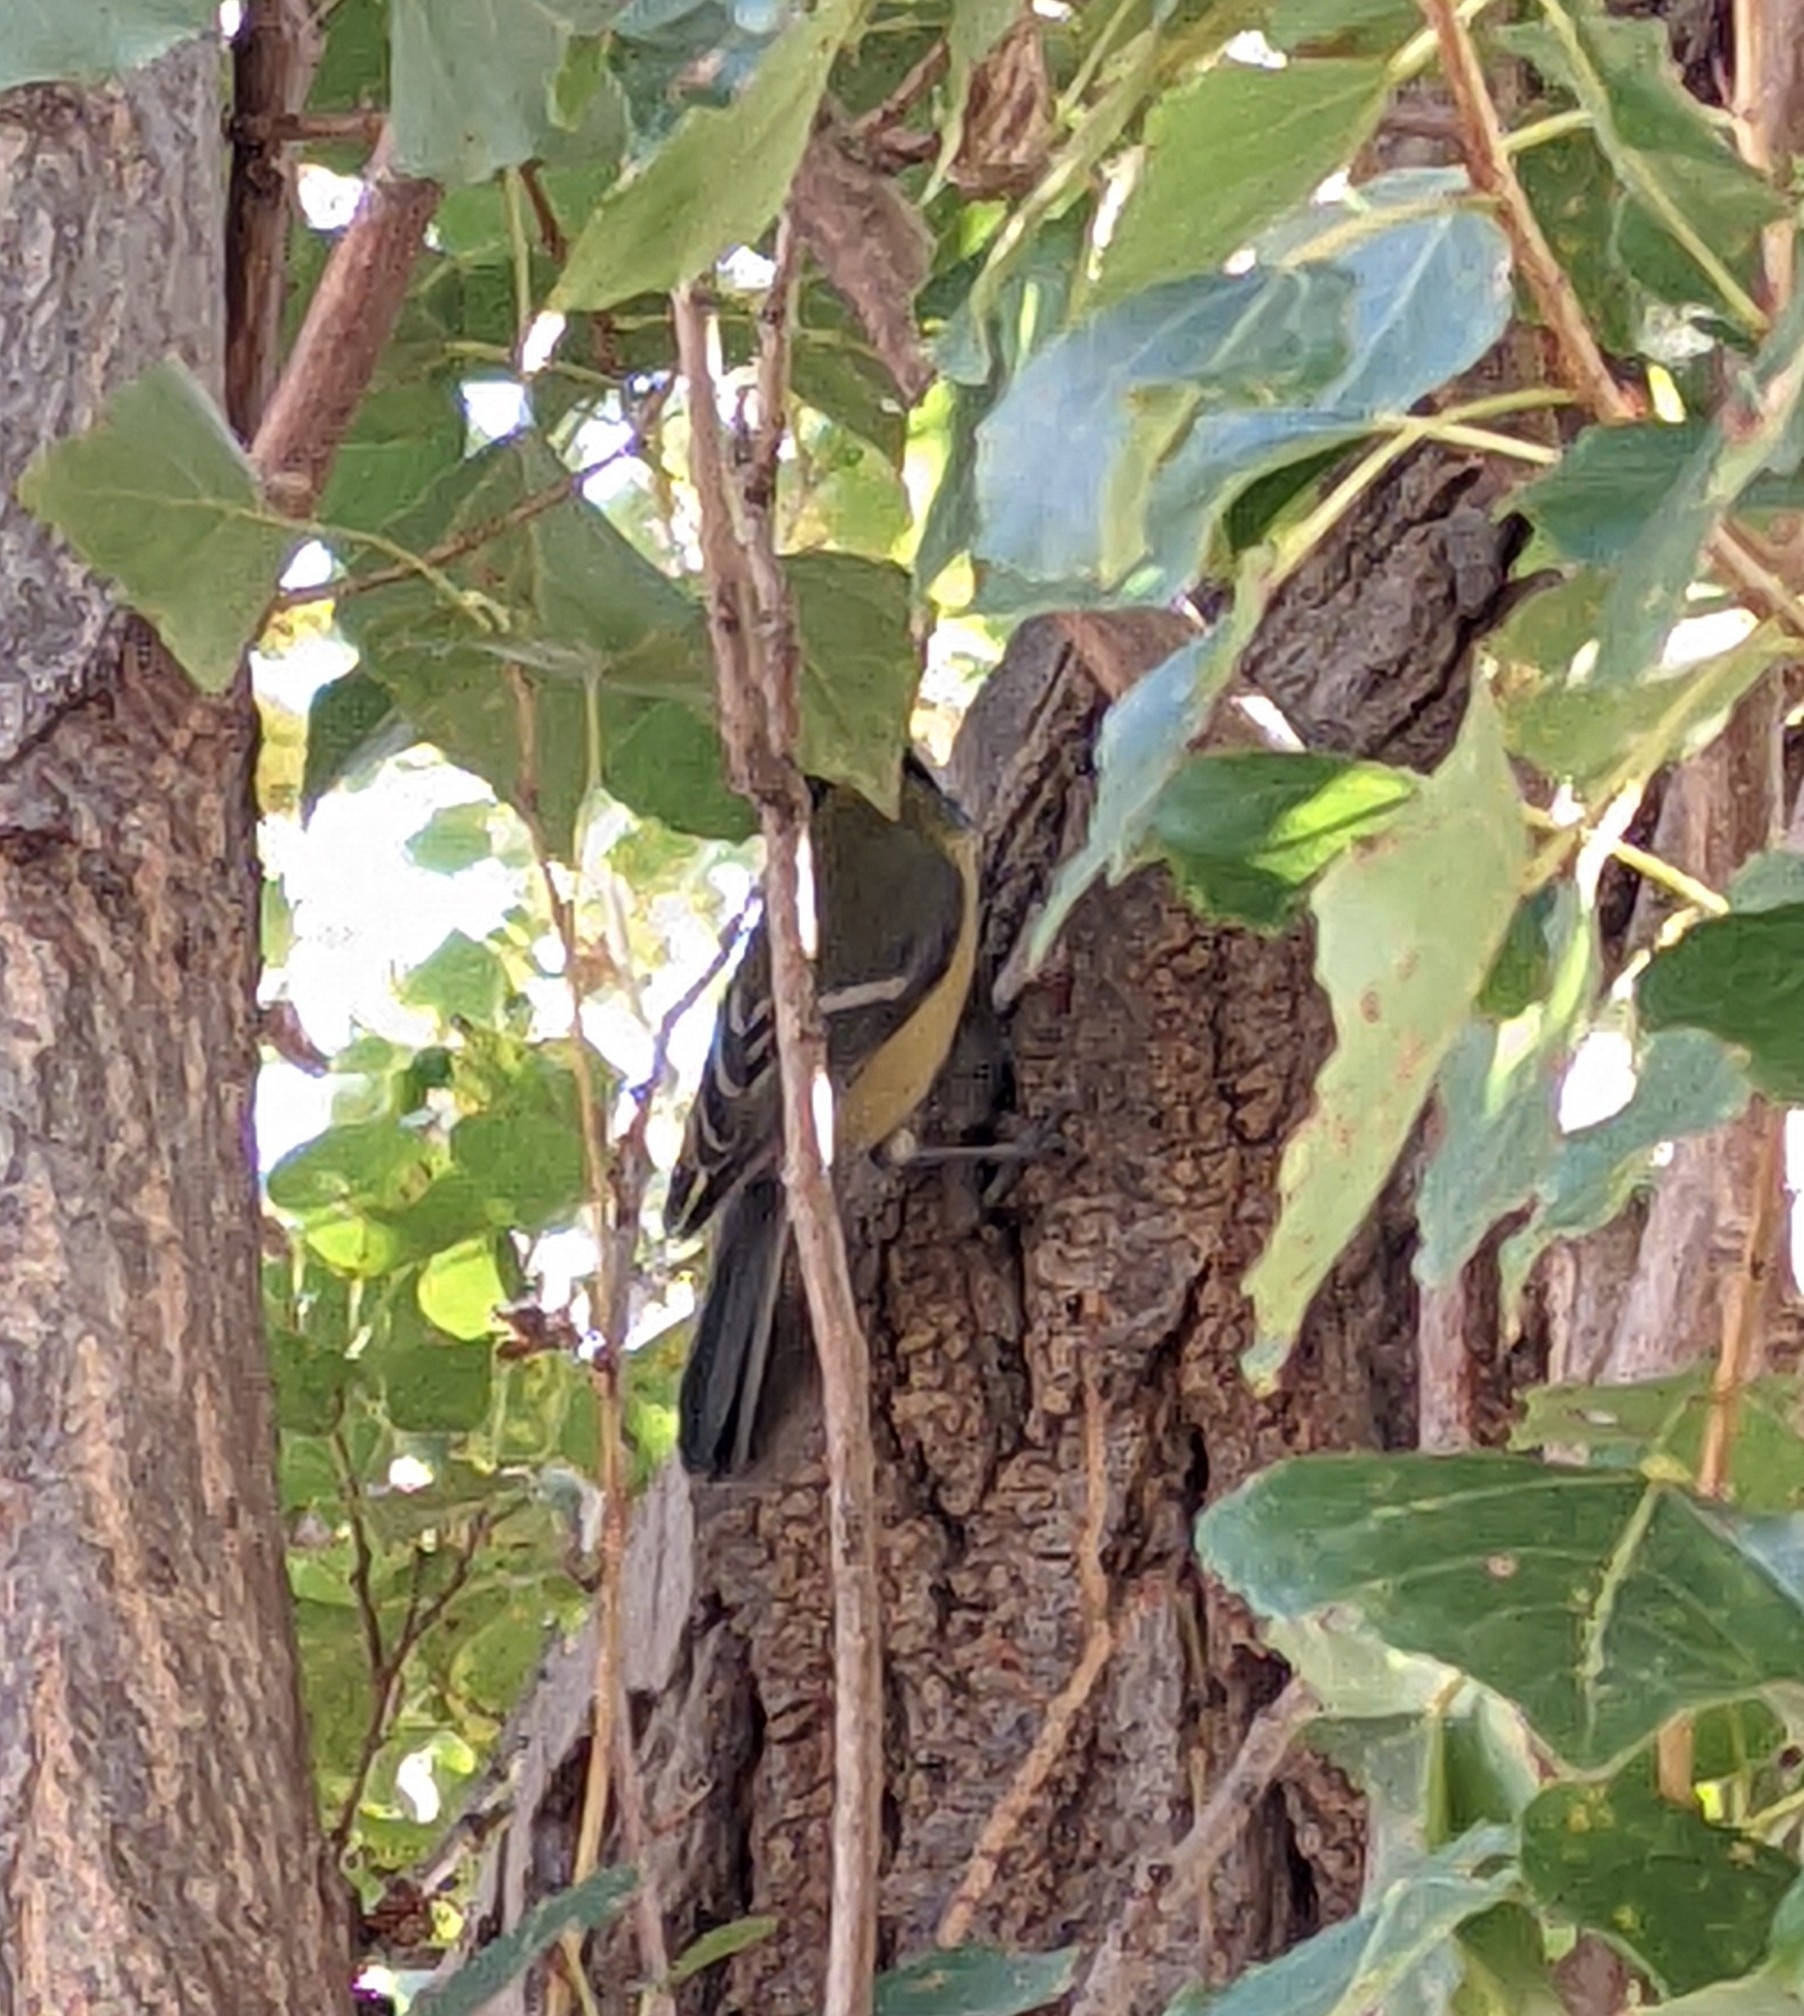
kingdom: Animalia
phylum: Chordata
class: Aves
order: Passeriformes
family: Paridae
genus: Parus
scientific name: Parus major
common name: Great tit
